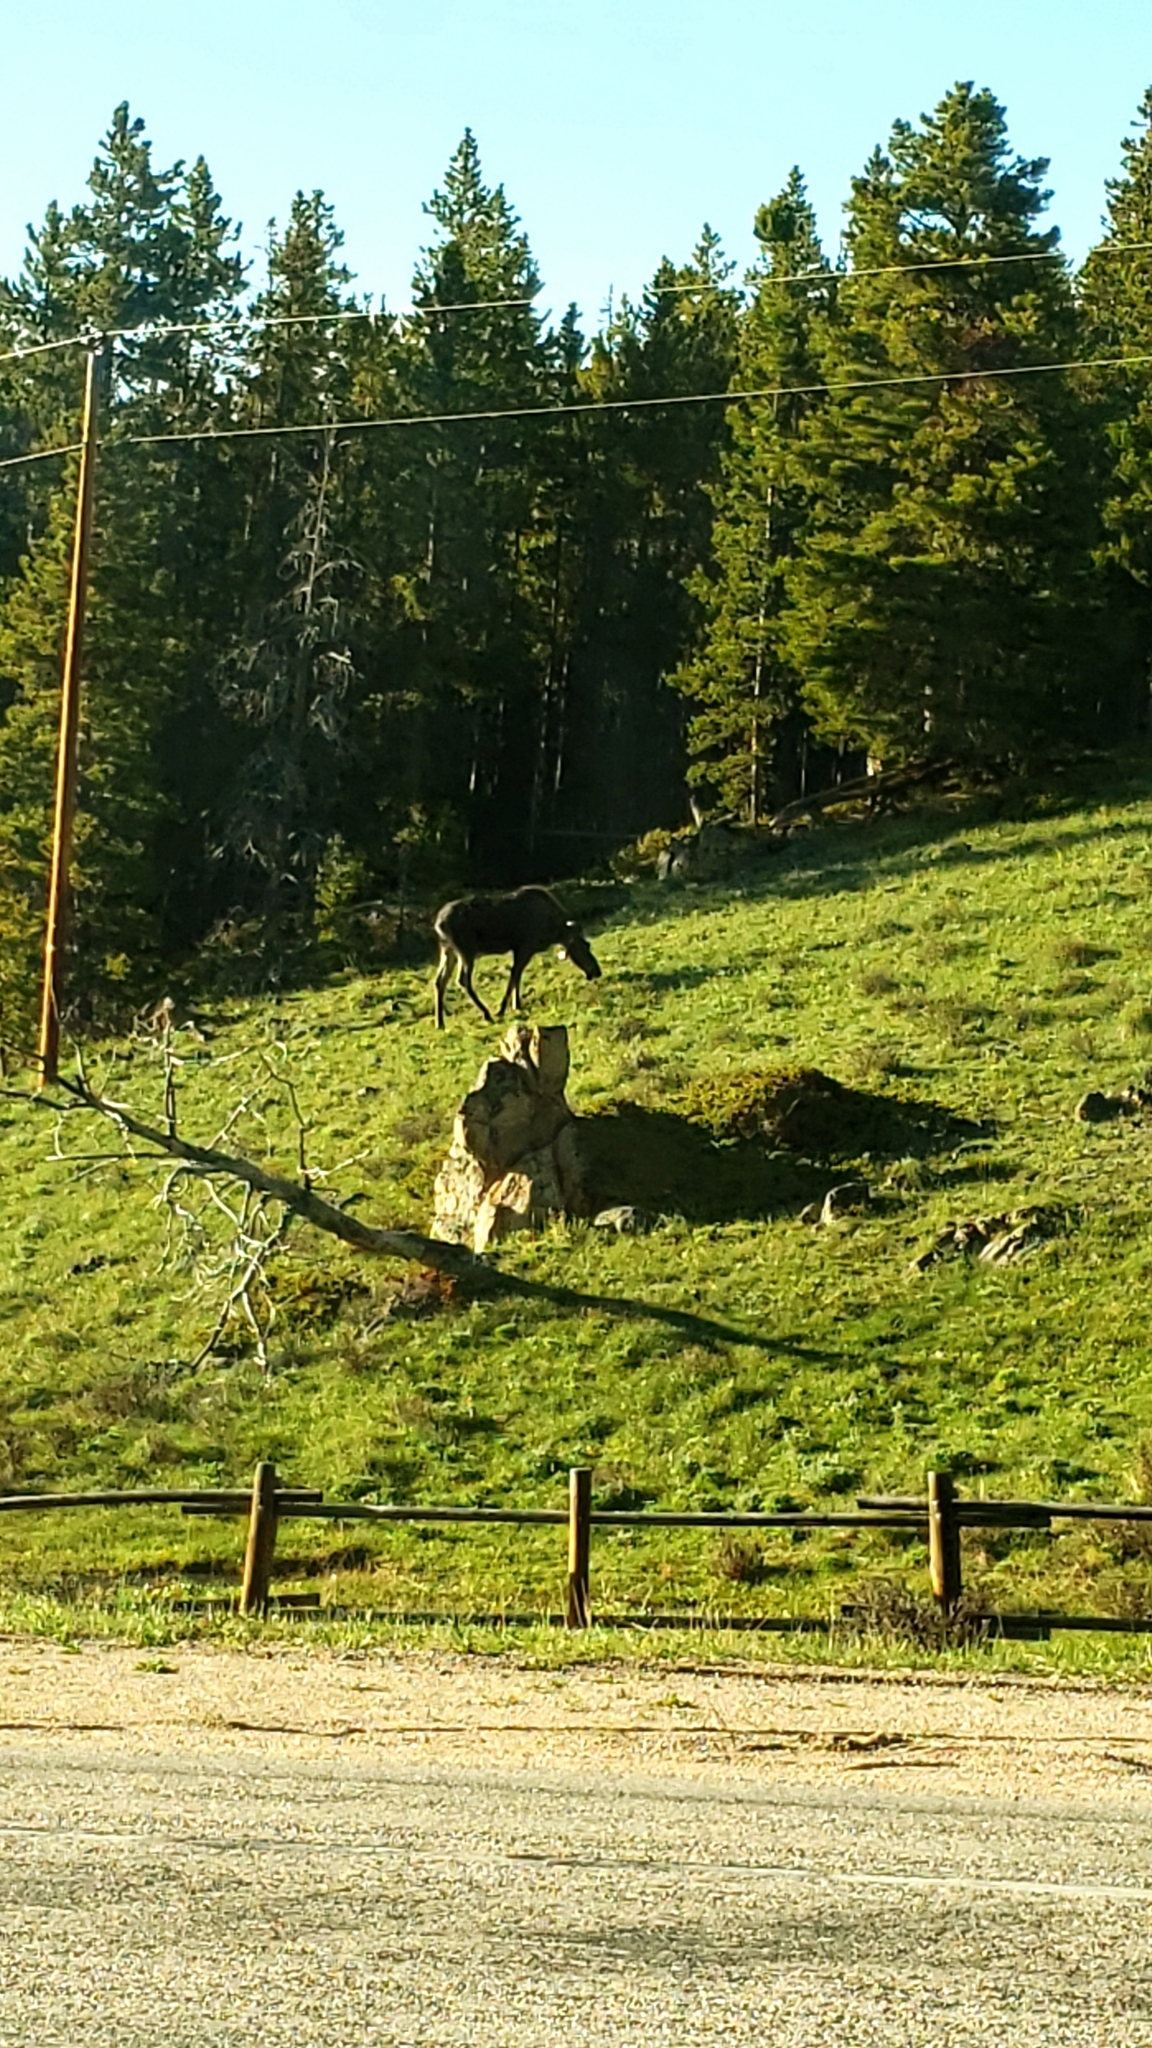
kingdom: Animalia
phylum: Chordata
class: Mammalia
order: Artiodactyla
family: Cervidae
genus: Alces
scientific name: Alces americanus
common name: Moose
